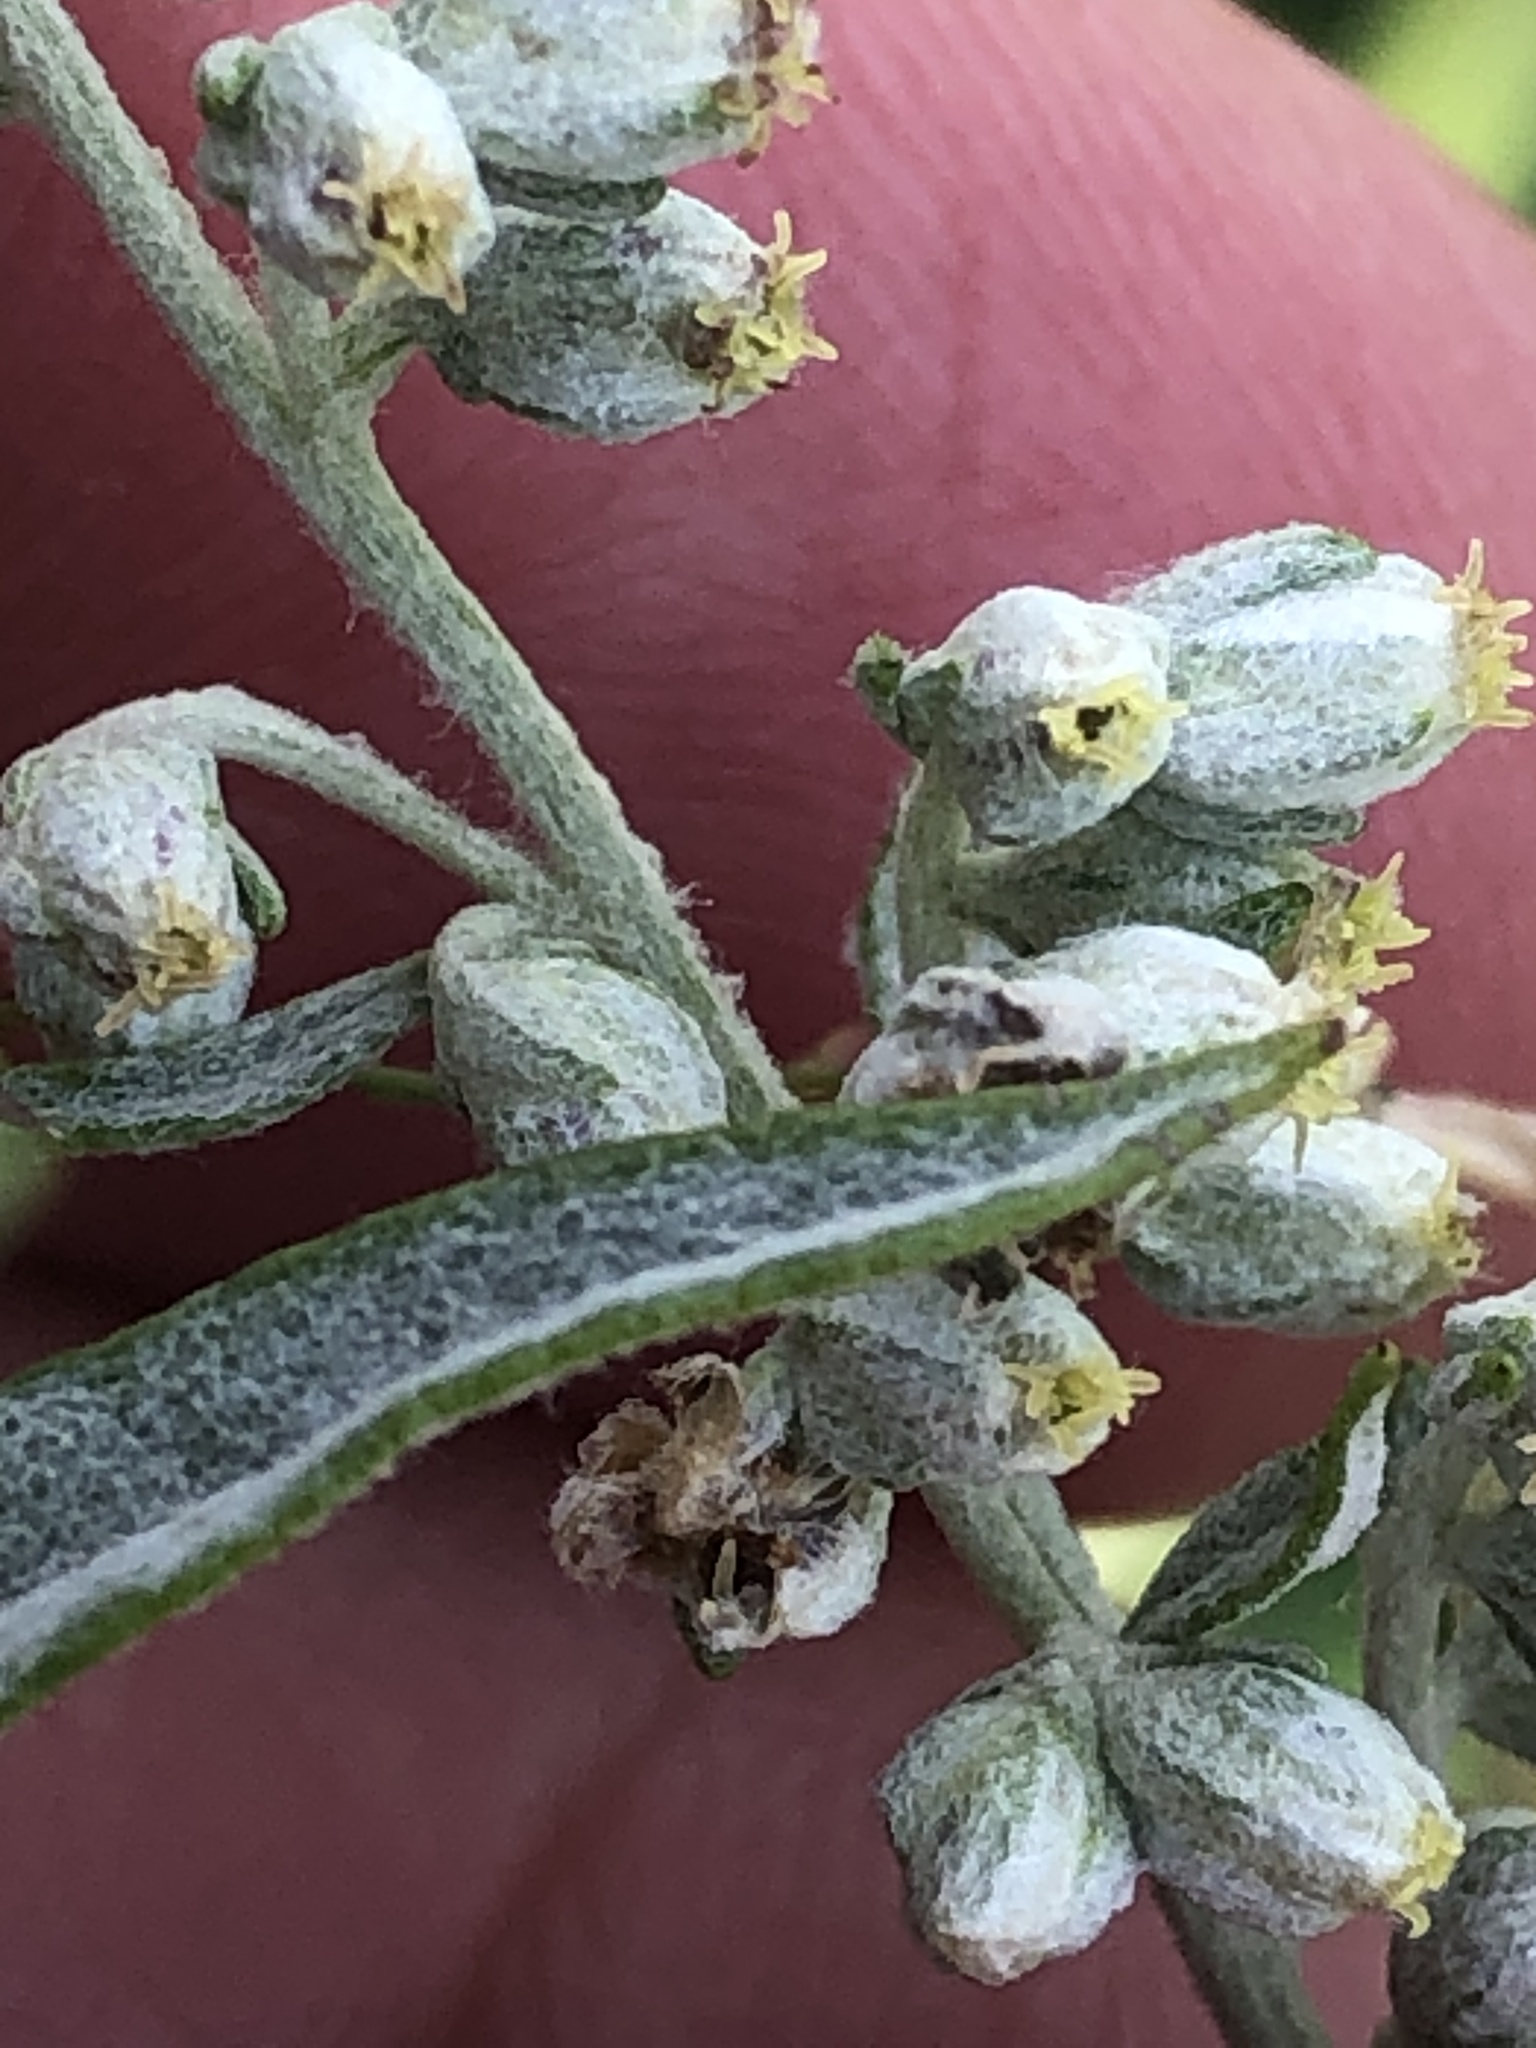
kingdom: Plantae
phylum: Tracheophyta
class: Magnoliopsida
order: Asterales
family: Asteraceae
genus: Artemisia
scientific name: Artemisia ludoviciana
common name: Western mugwort
